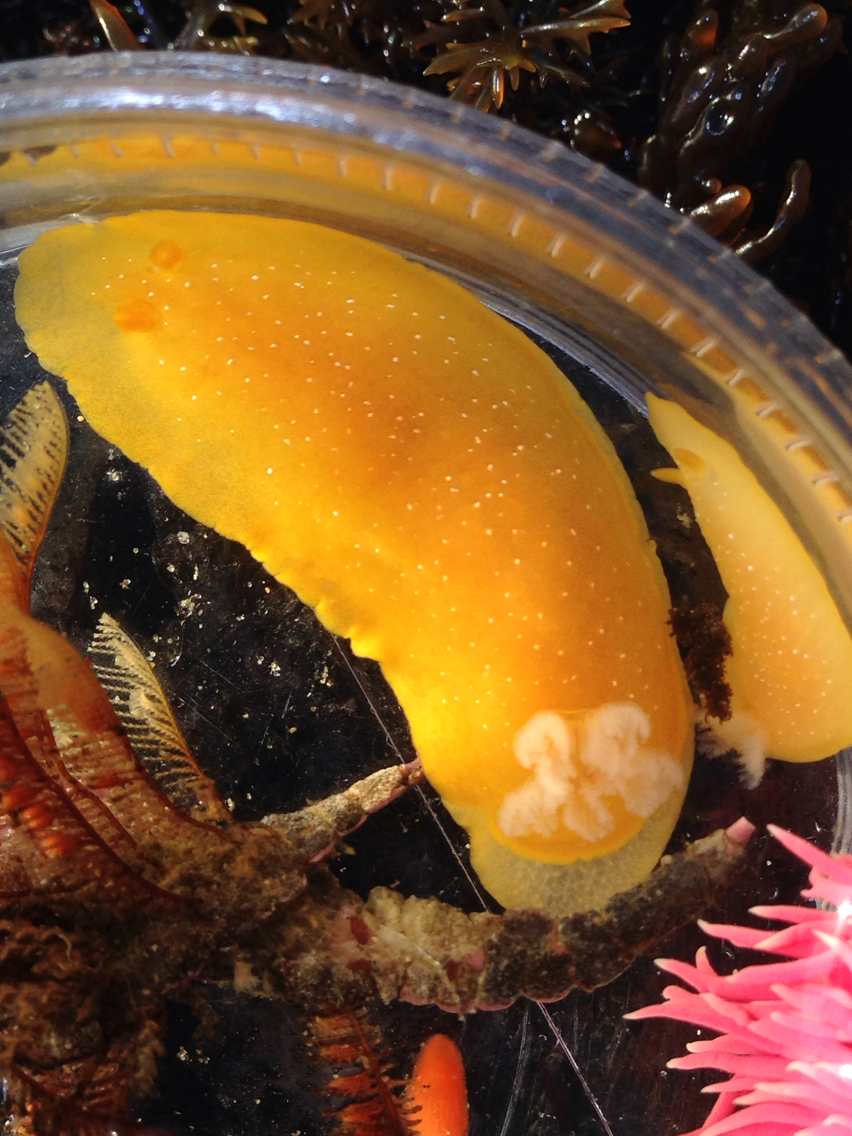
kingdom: Animalia
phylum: Mollusca
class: Gastropoda
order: Nudibranchia
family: Dendrodorididae
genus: Doriopsilla
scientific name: Doriopsilla fulva
